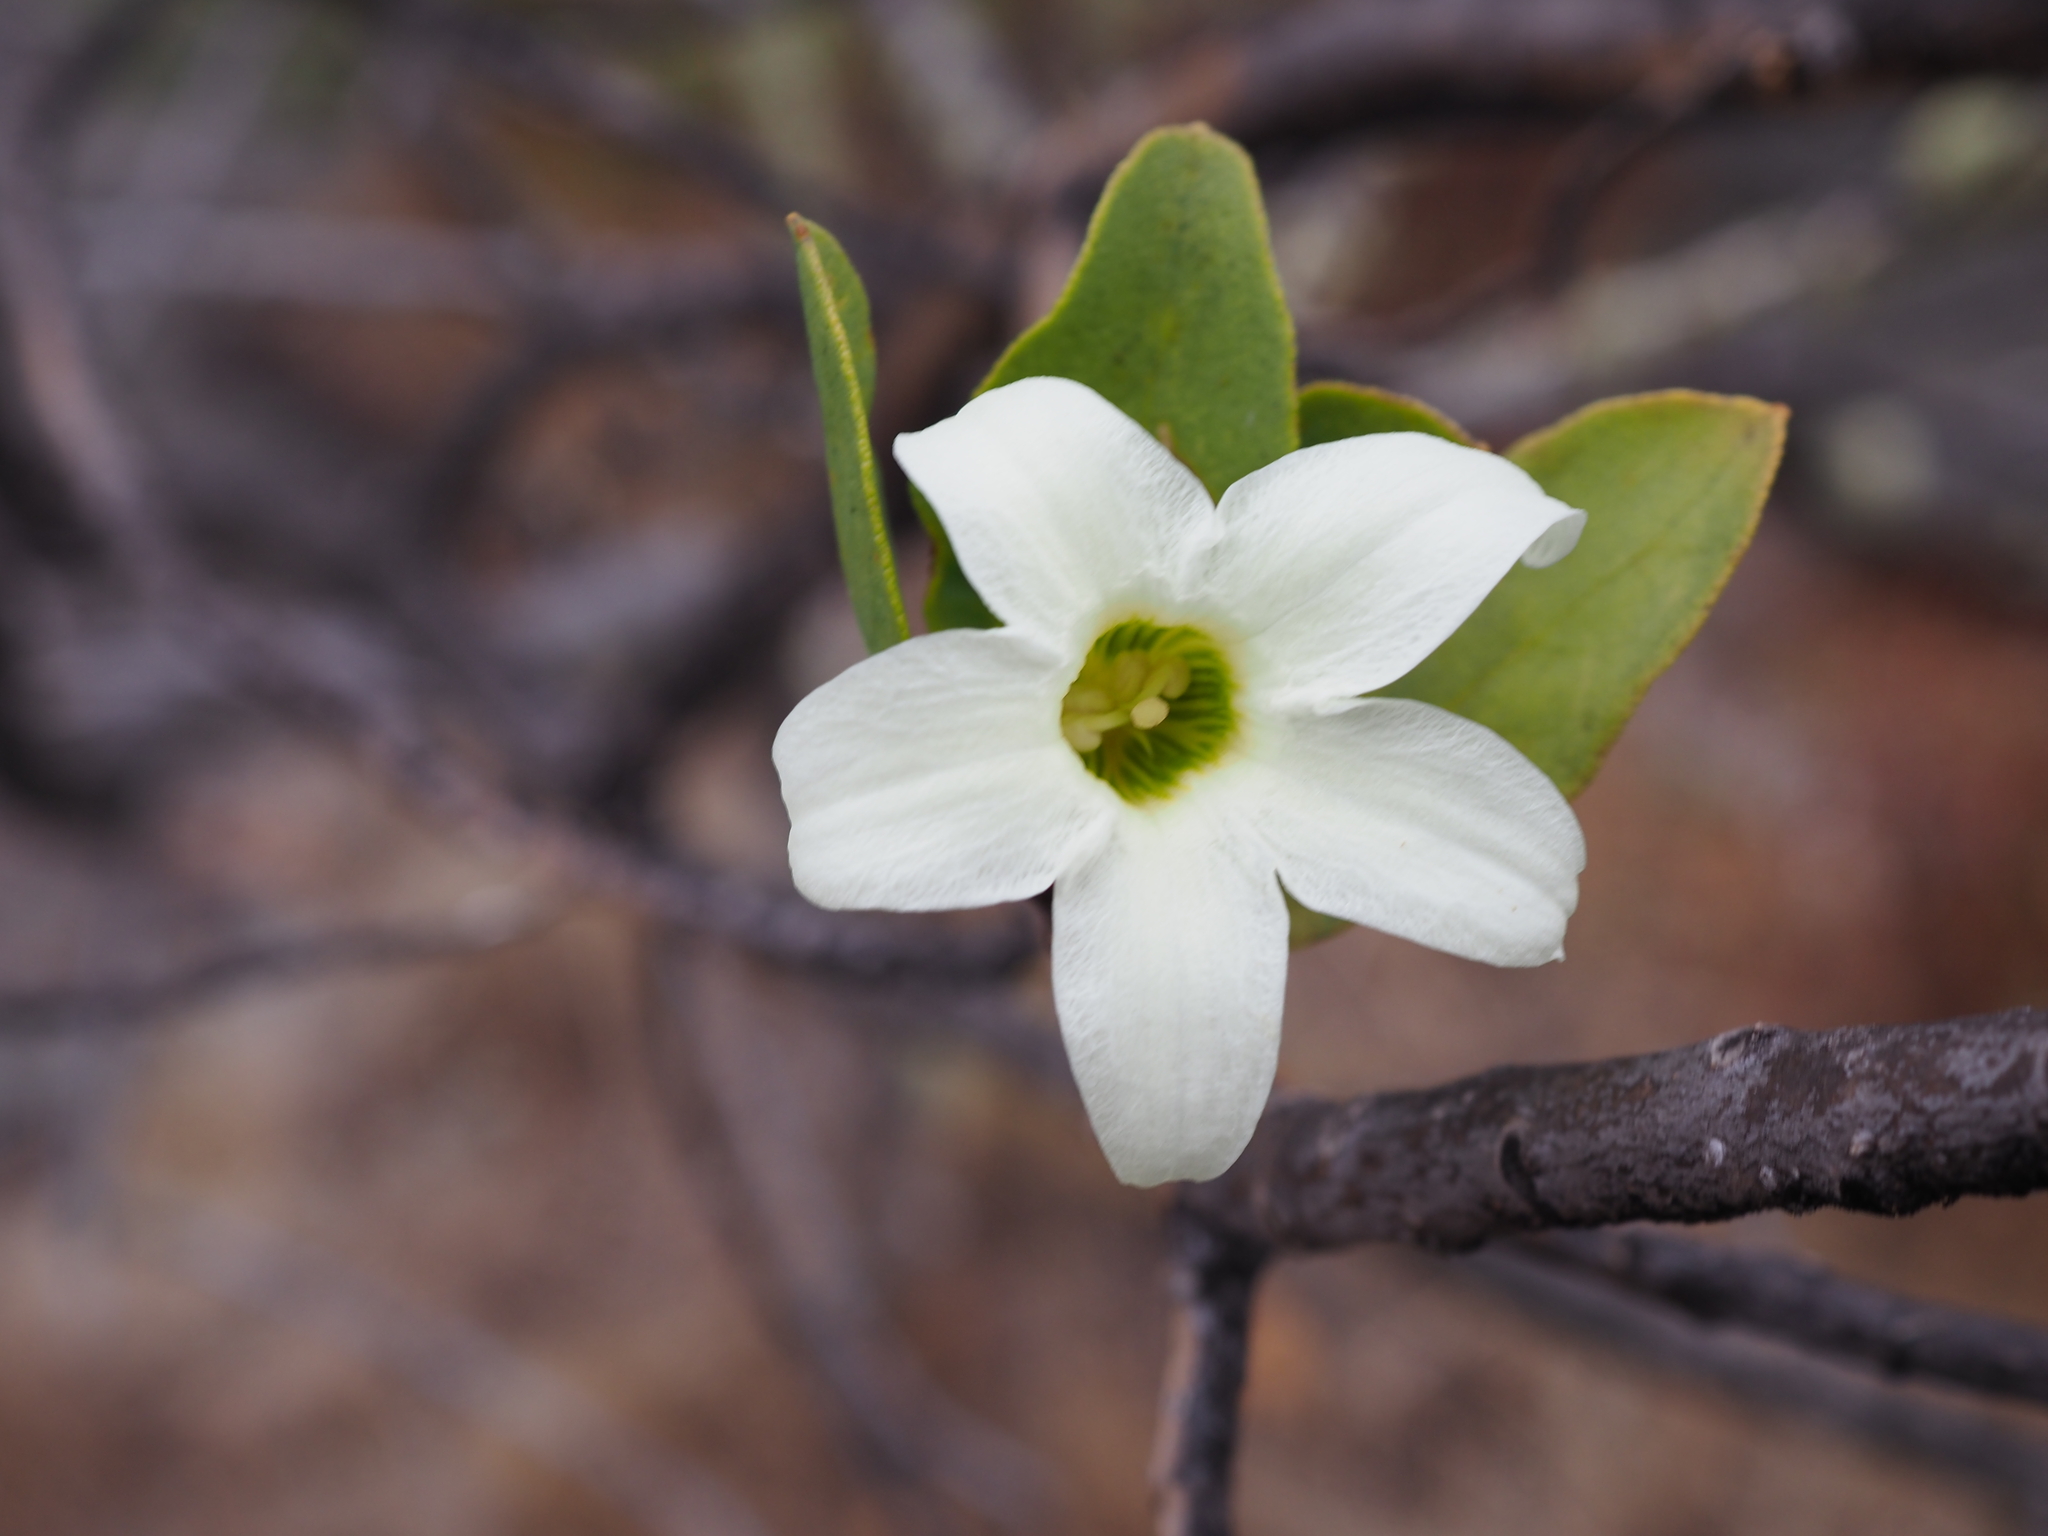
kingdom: Plantae
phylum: Tracheophyta
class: Magnoliopsida
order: Solanales
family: Solanaceae
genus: Anthocercis
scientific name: Anthocercis viscosa
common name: Sticky tailflower
